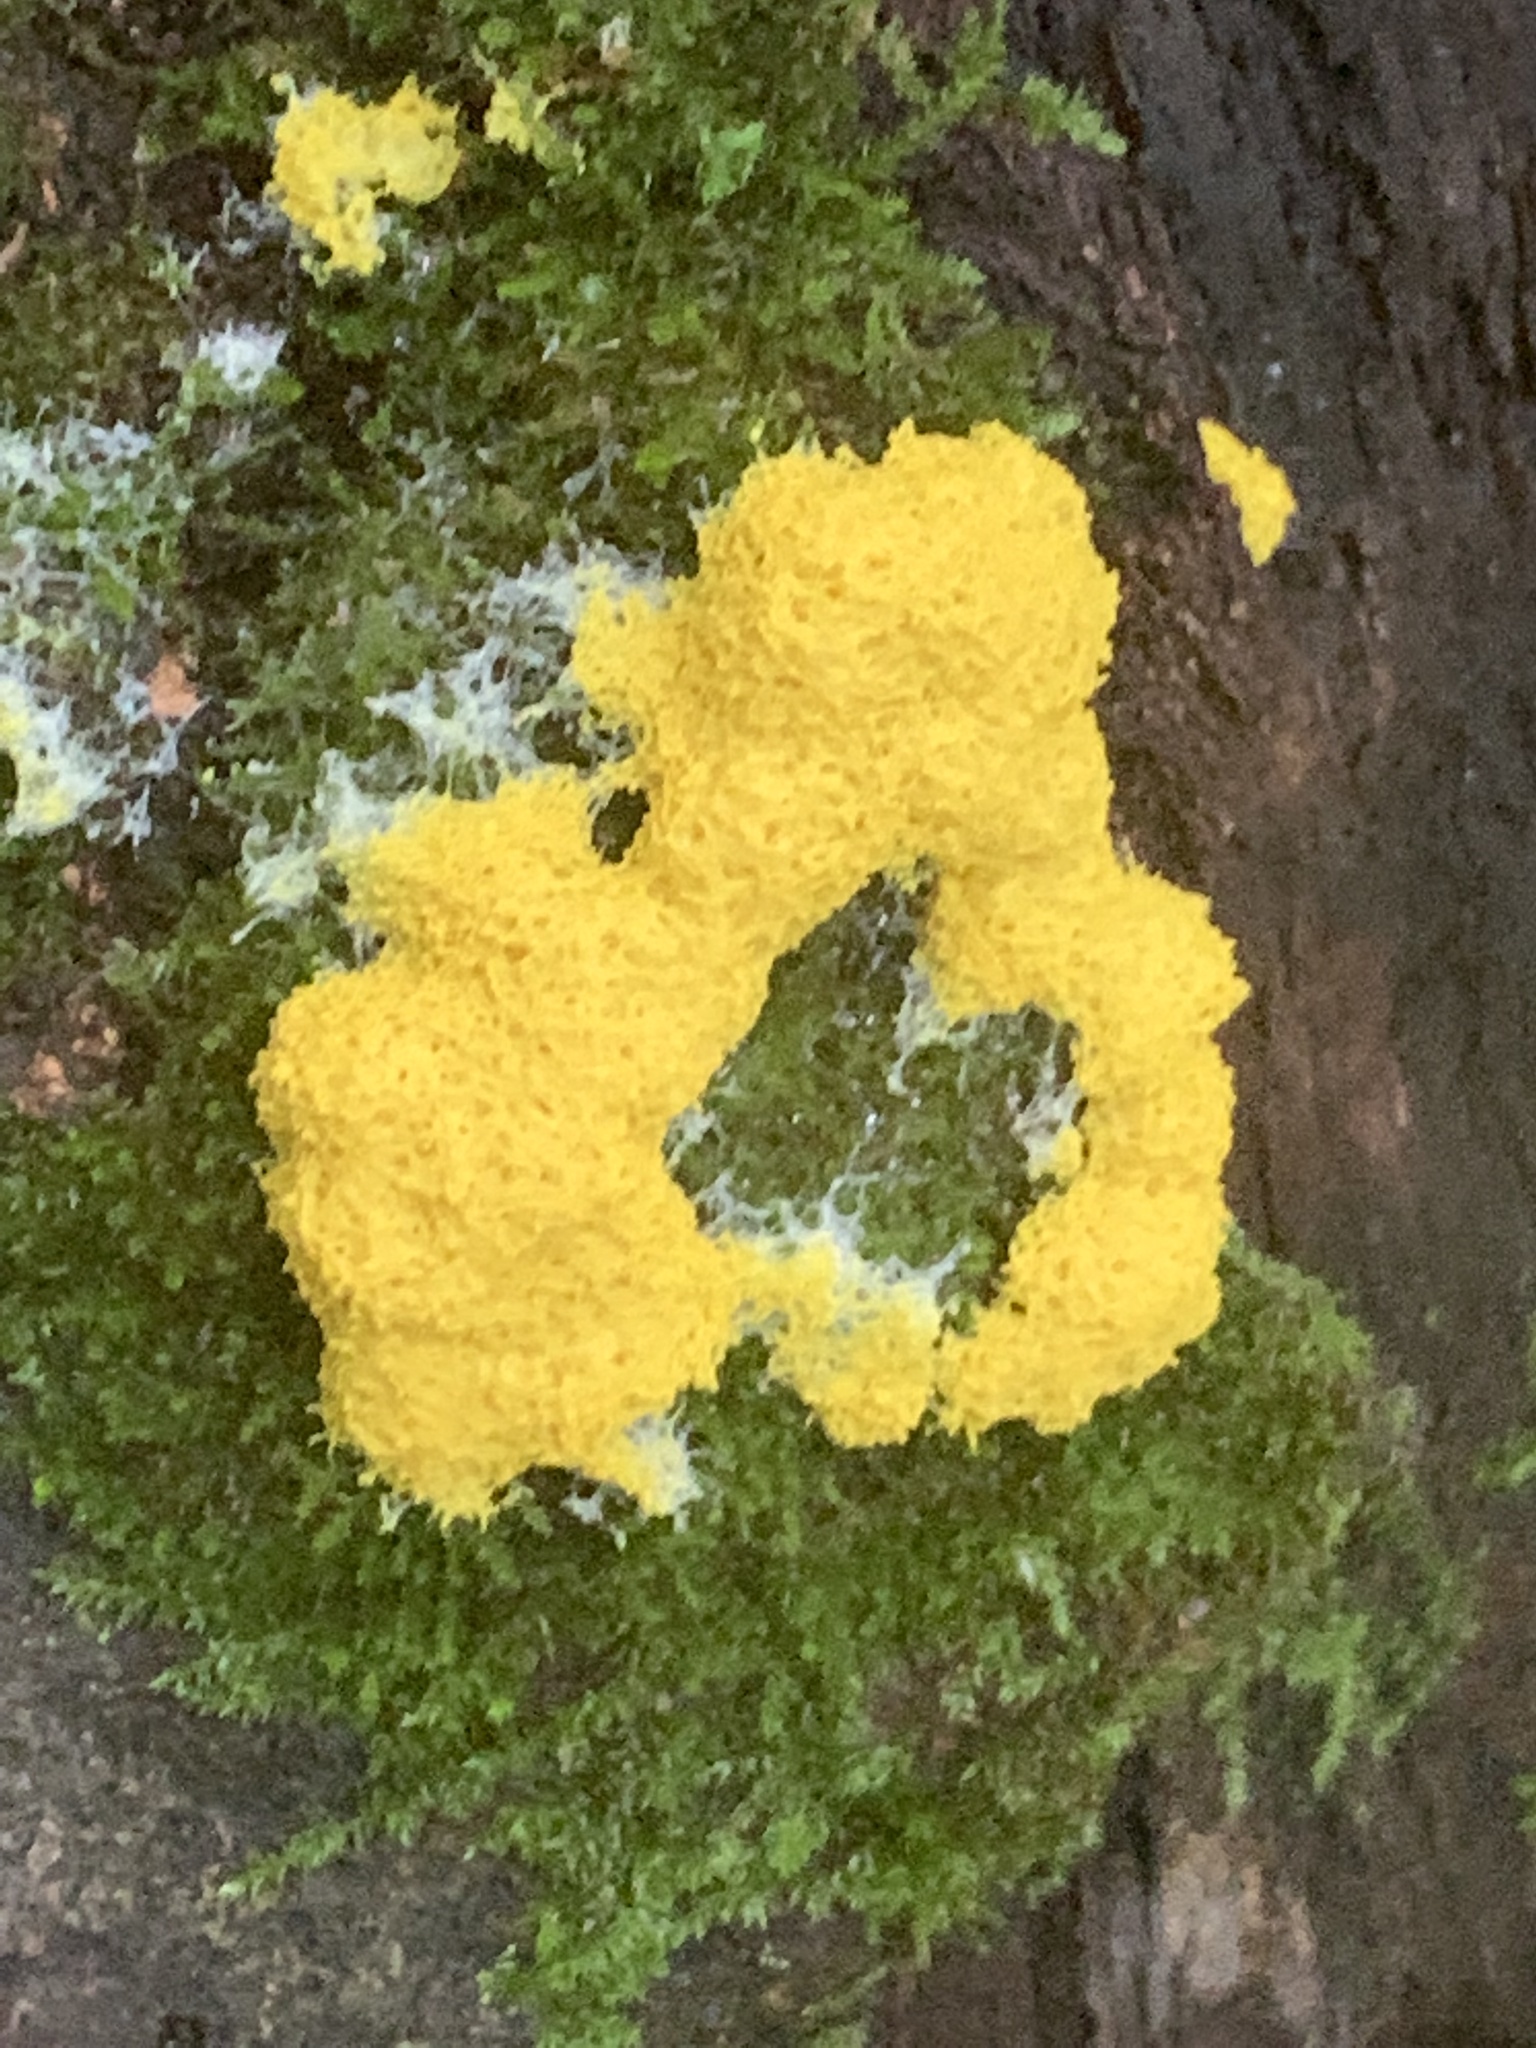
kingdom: Protozoa
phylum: Mycetozoa
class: Myxomycetes
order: Physarales
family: Physaraceae
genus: Fuligo
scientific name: Fuligo septica
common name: Dog vomit slime mold
